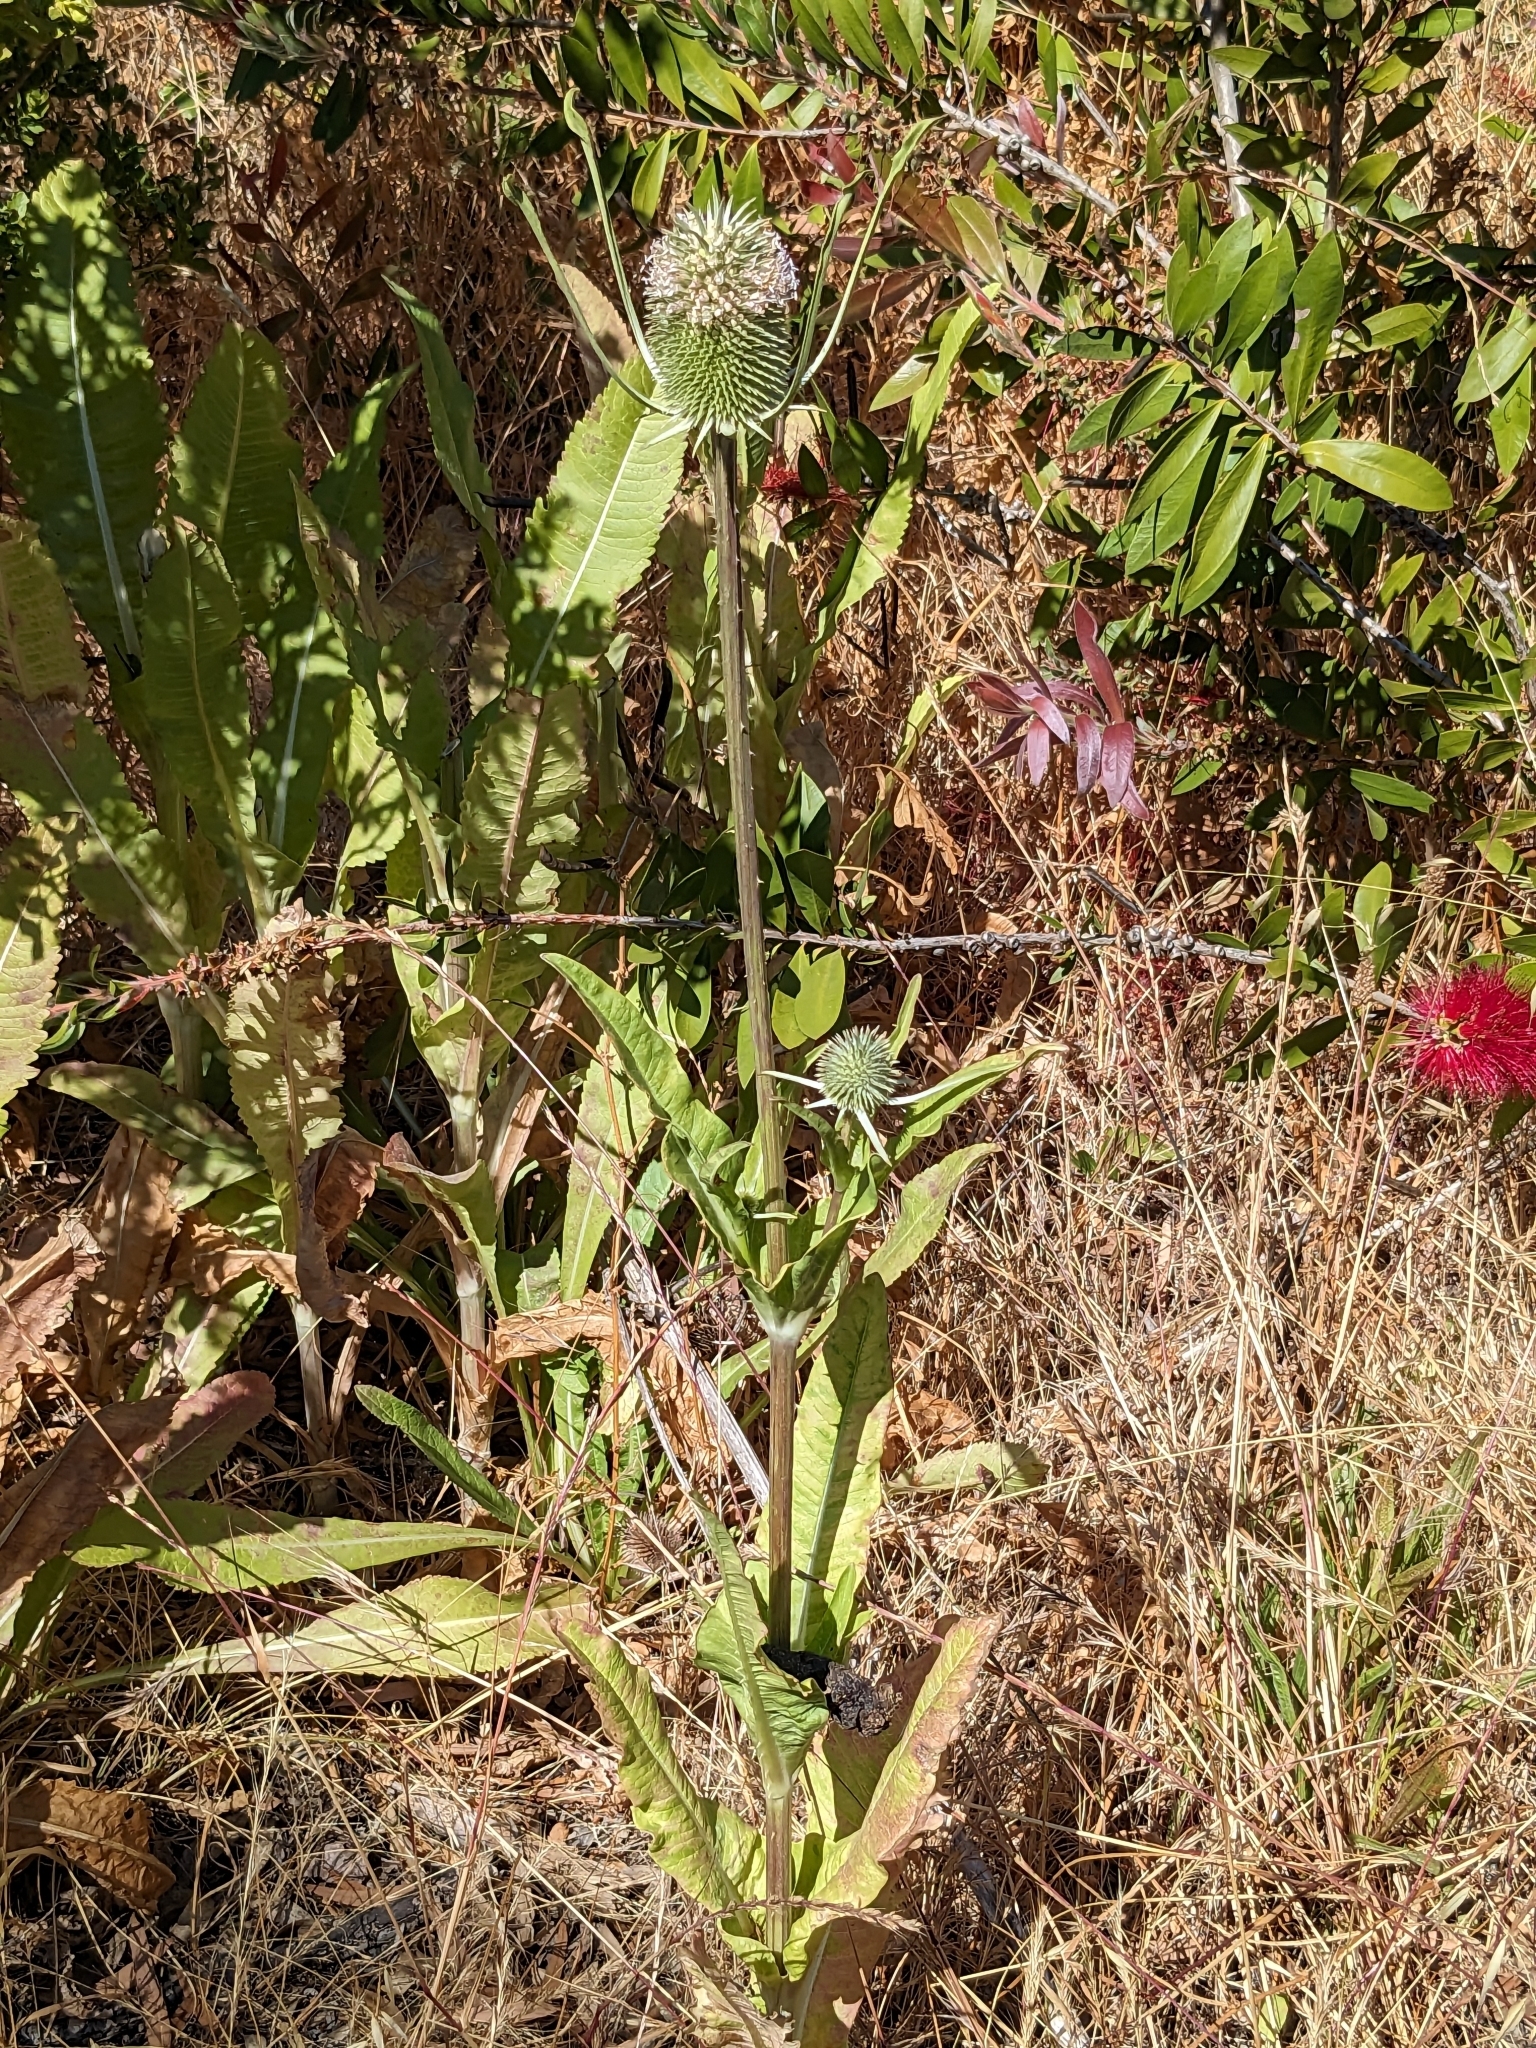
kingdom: Plantae
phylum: Tracheophyta
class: Magnoliopsida
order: Dipsacales
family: Caprifoliaceae
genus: Dipsacus
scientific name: Dipsacus sativus
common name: Fuller's teasel
